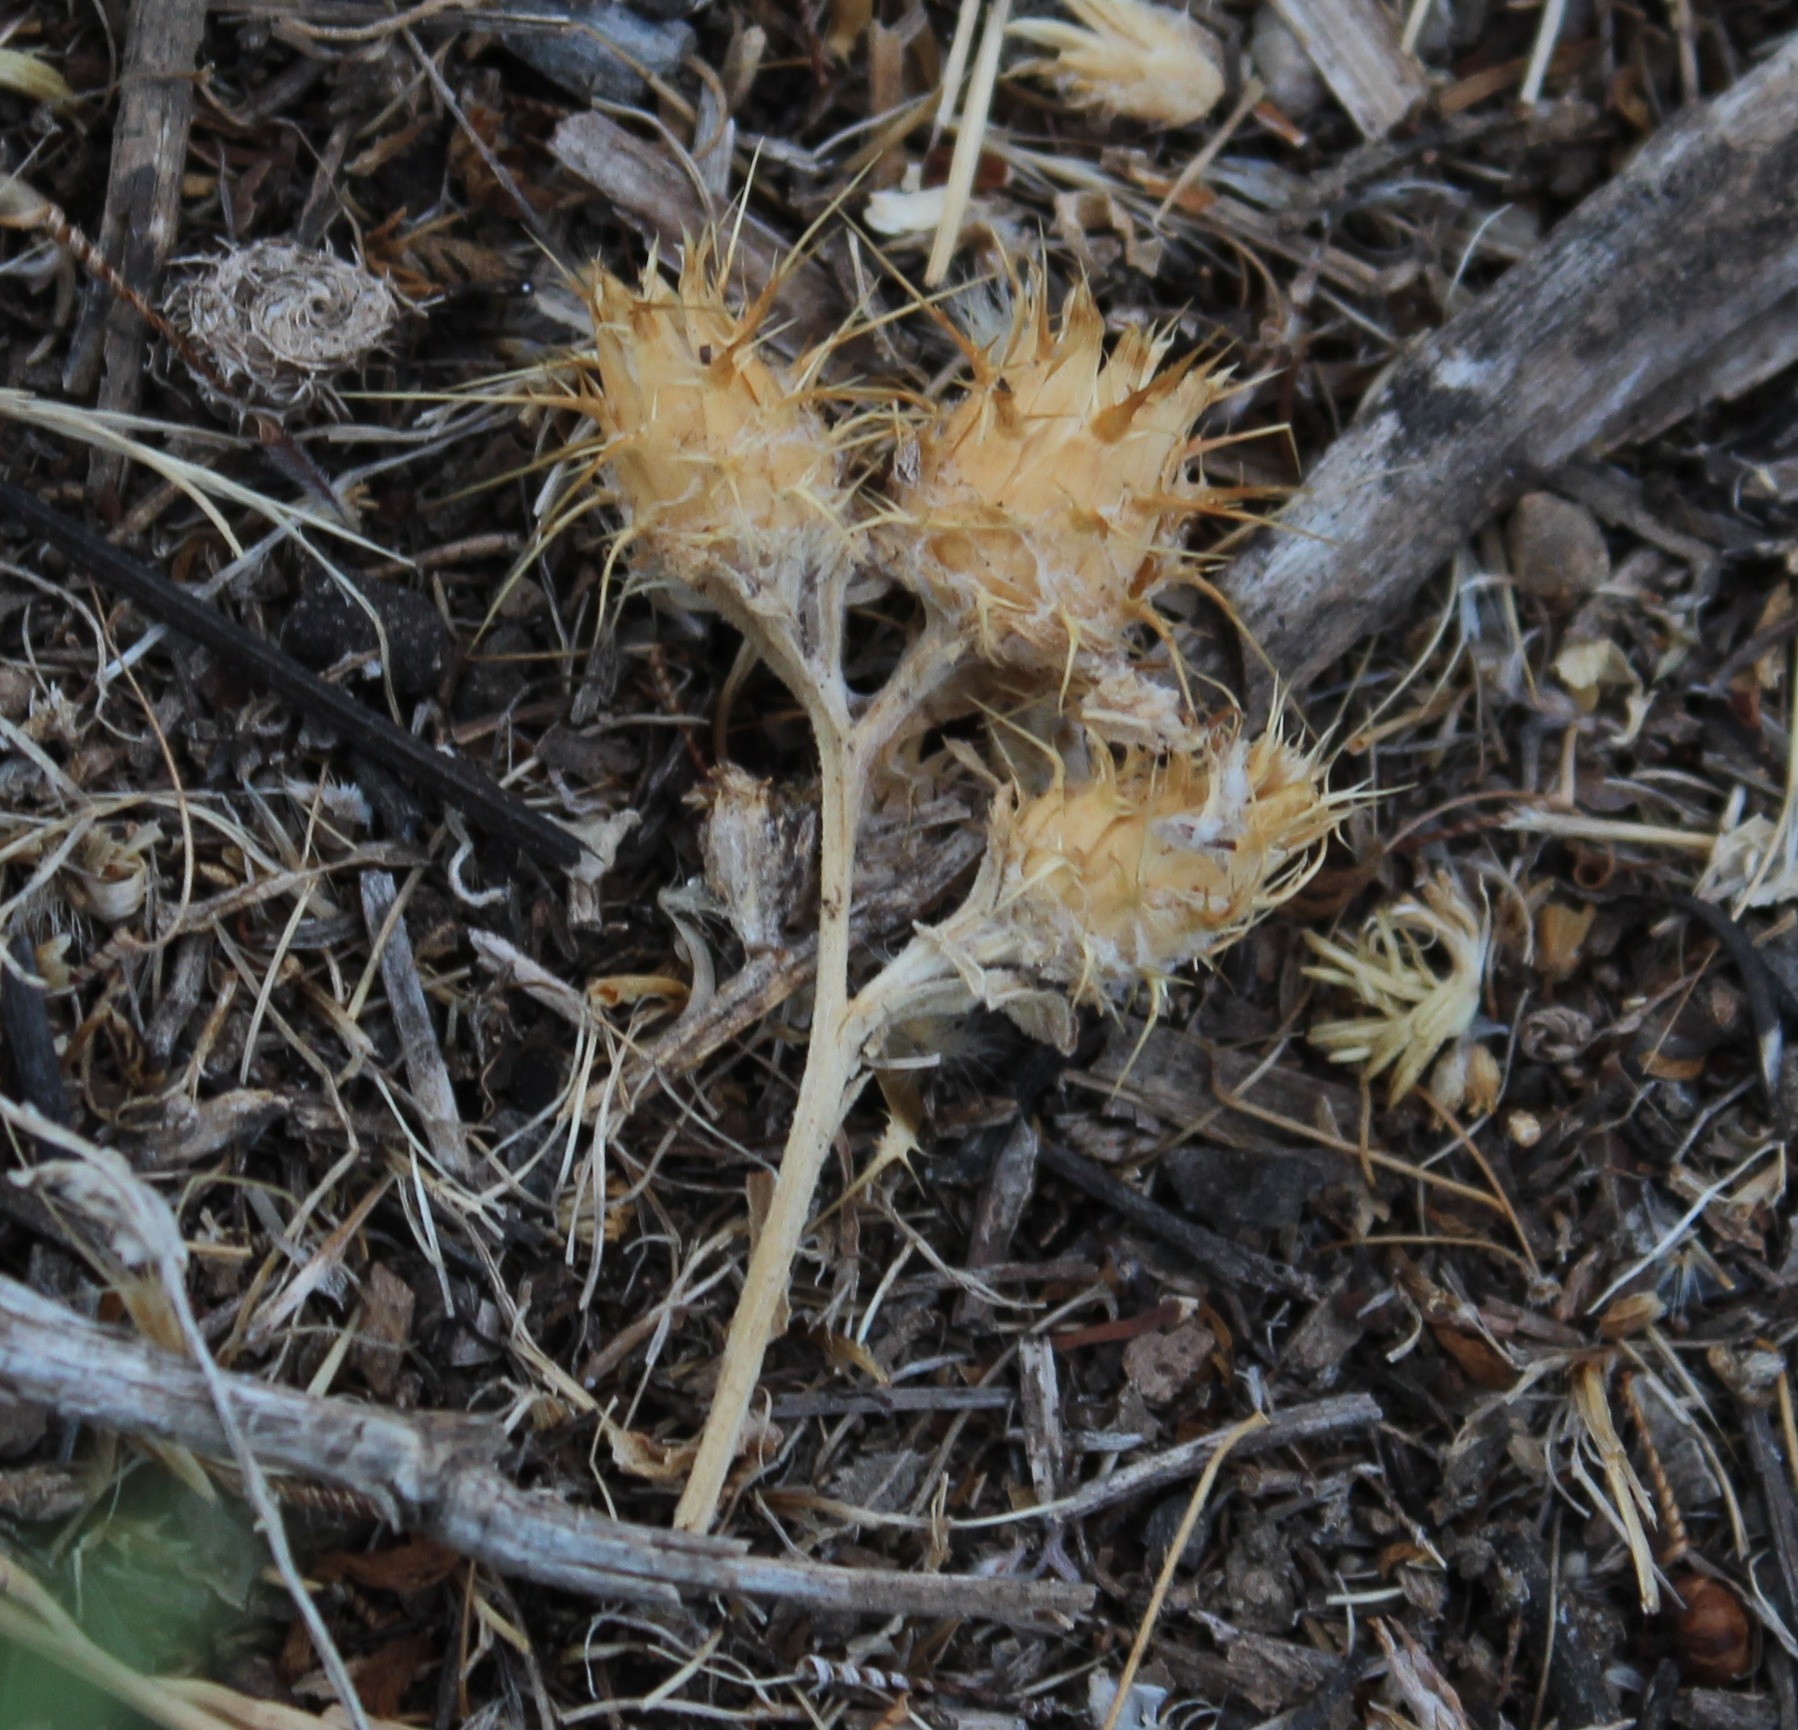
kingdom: Plantae
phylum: Tracheophyta
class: Magnoliopsida
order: Asterales
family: Asteraceae
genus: Centaurea
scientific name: Centaurea melitensis
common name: Maltese star-thistle
